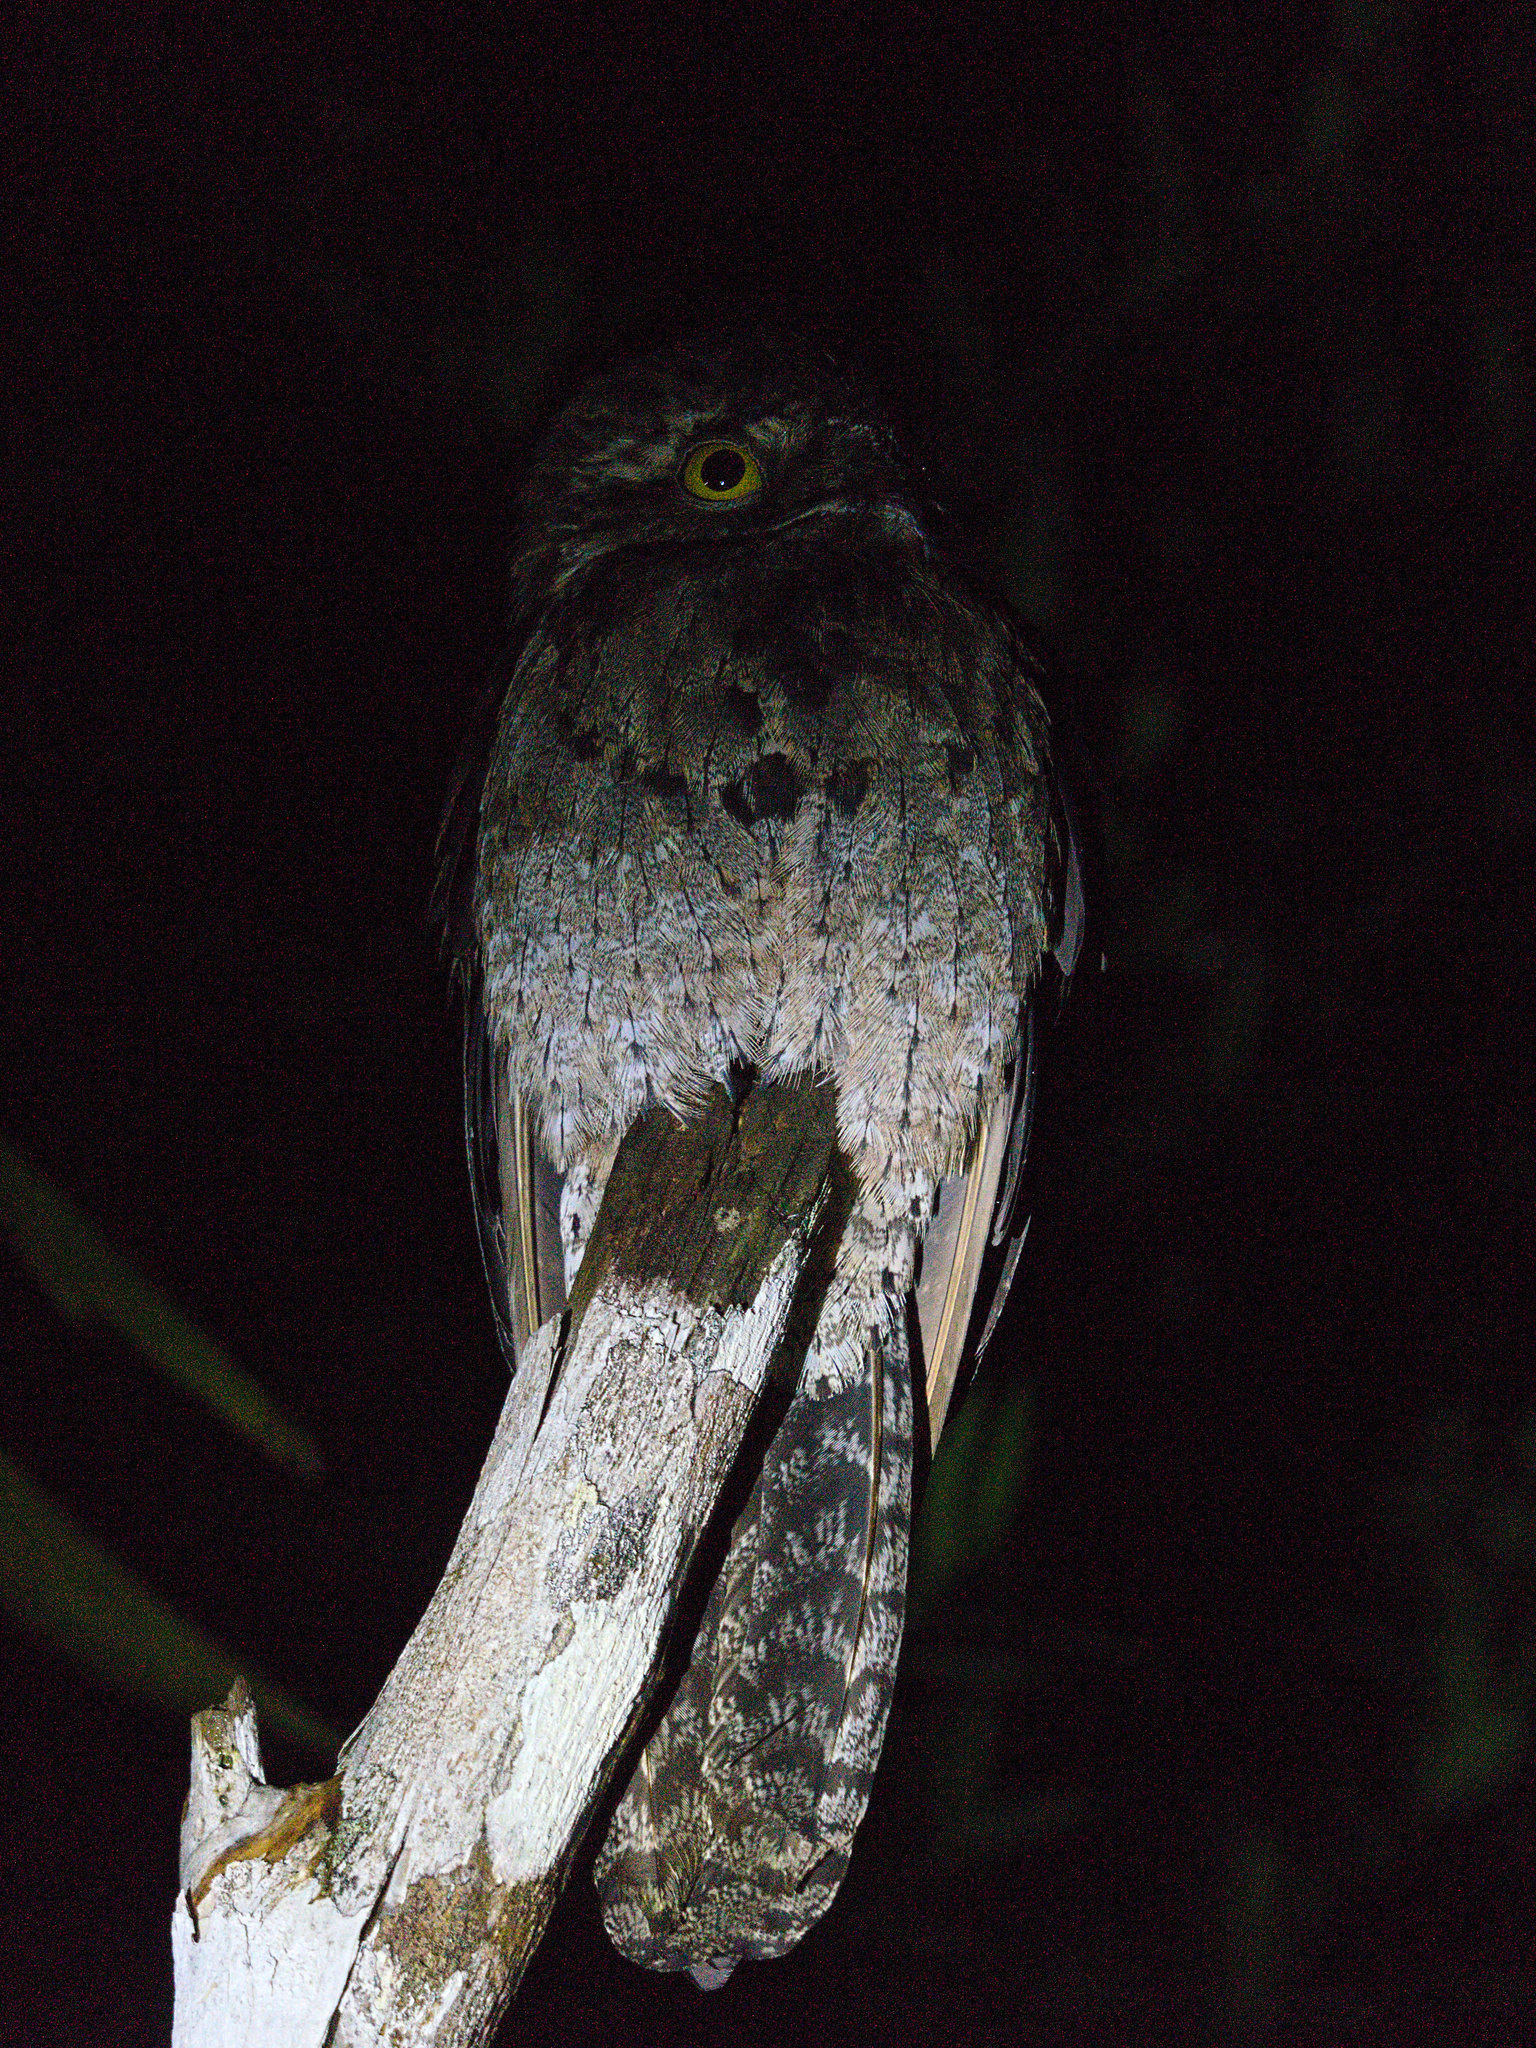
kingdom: Animalia
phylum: Chordata
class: Aves
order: Nyctibiiformes
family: Nyctibiidae
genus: Nyctibius
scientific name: Nyctibius griseus
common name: Common potoo
